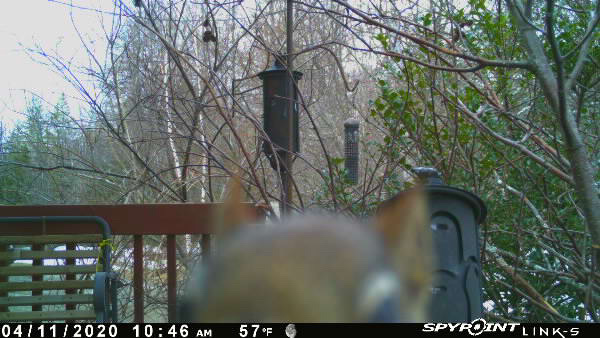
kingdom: Animalia
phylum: Chordata
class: Mammalia
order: Rodentia
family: Sciuridae
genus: Tamiasciurus
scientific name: Tamiasciurus hudsonicus
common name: Red squirrel
